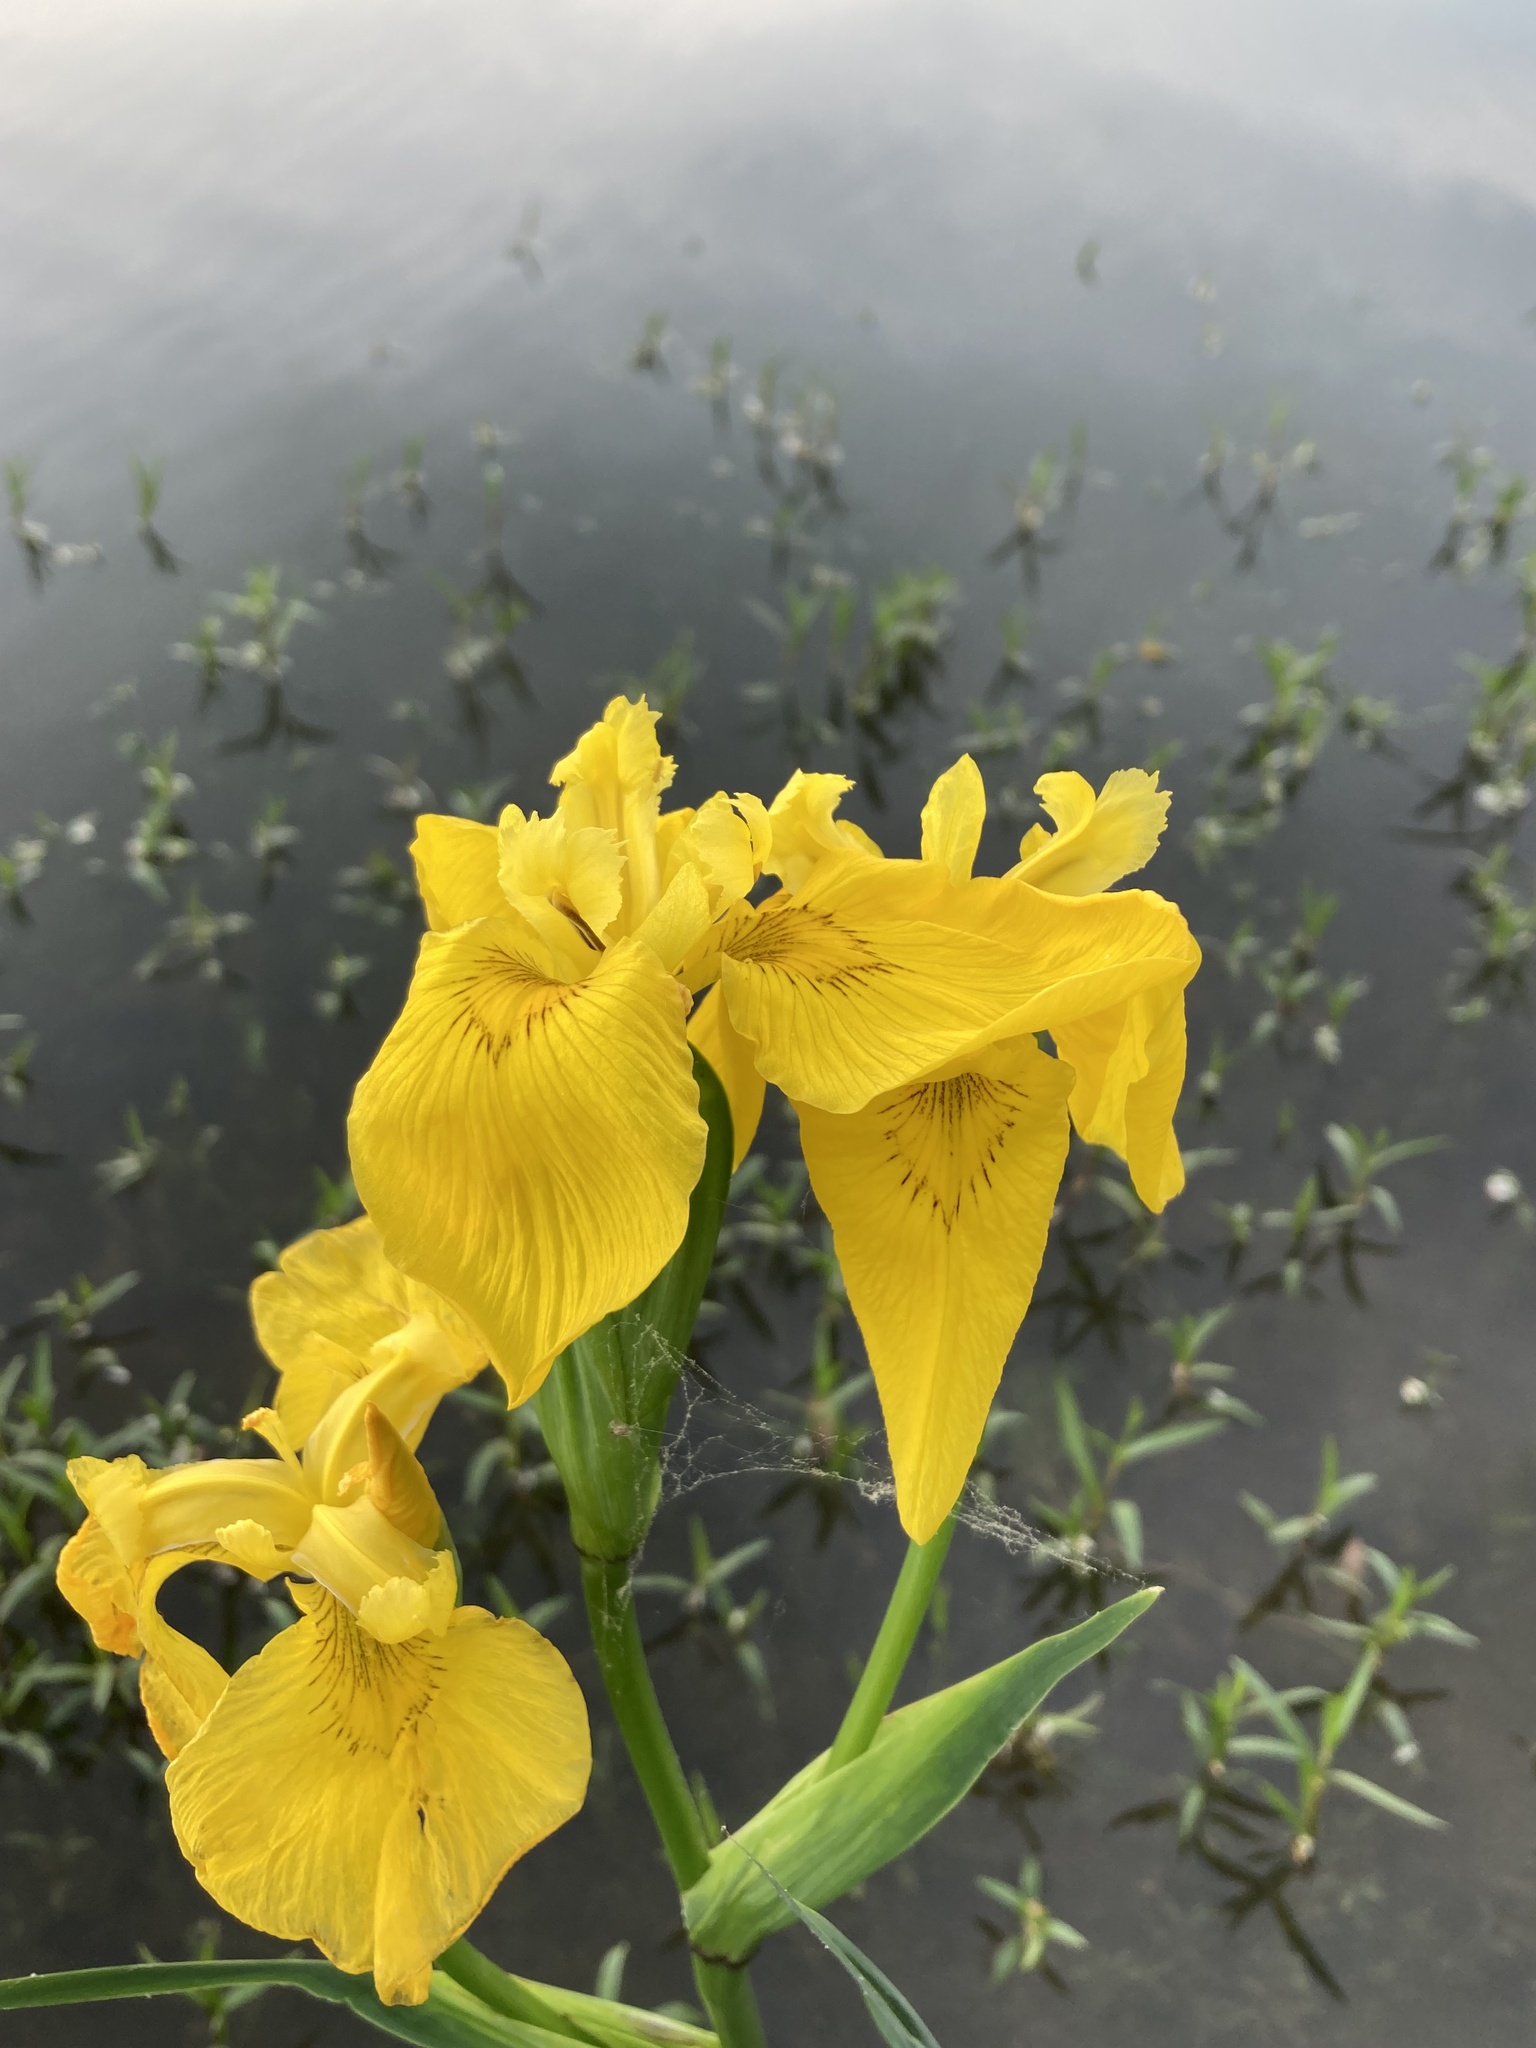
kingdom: Plantae
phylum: Tracheophyta
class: Liliopsida
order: Asparagales
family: Iridaceae
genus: Iris
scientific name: Iris pseudacorus
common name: Yellow flag
